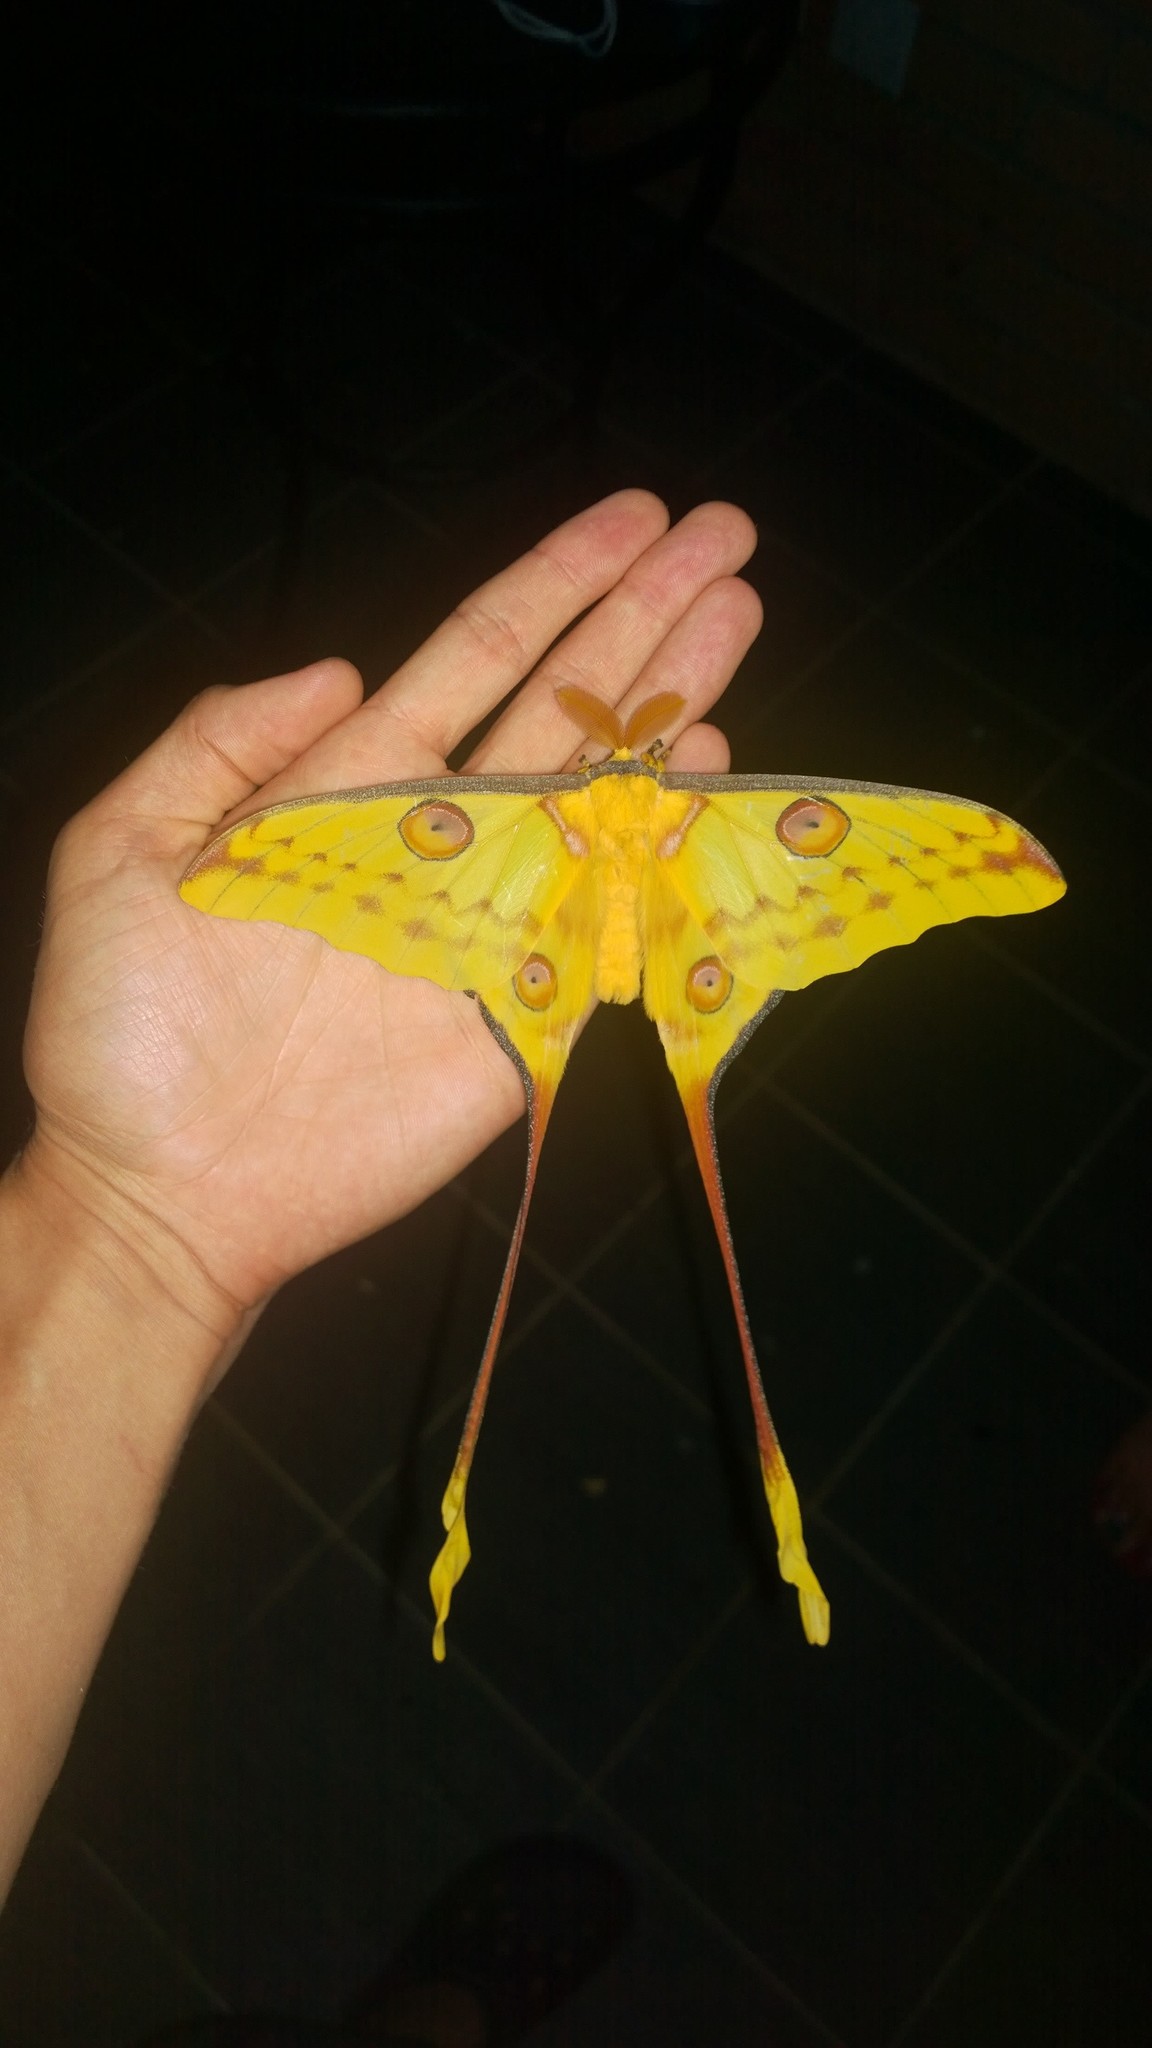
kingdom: Animalia
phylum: Arthropoda
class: Insecta
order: Lepidoptera
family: Saturniidae
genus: Argema
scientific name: Argema mittrei
